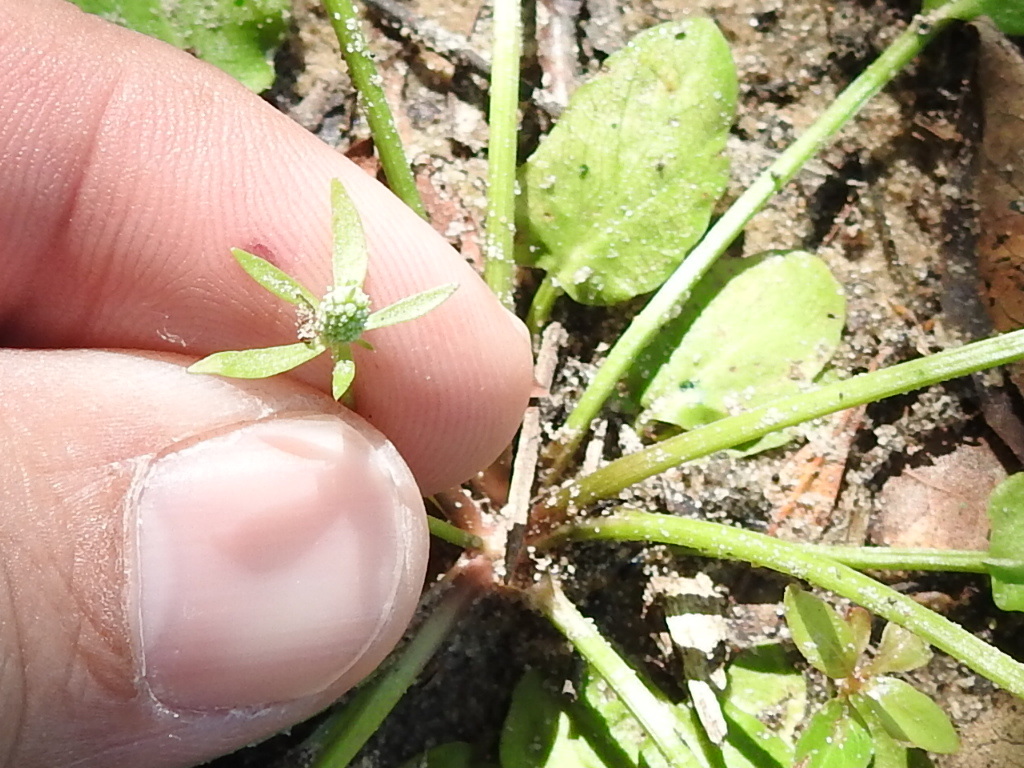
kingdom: Plantae
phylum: Tracheophyta
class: Magnoliopsida
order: Apiales
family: Apiaceae
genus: Eryngium
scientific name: Eryngium prostratum
